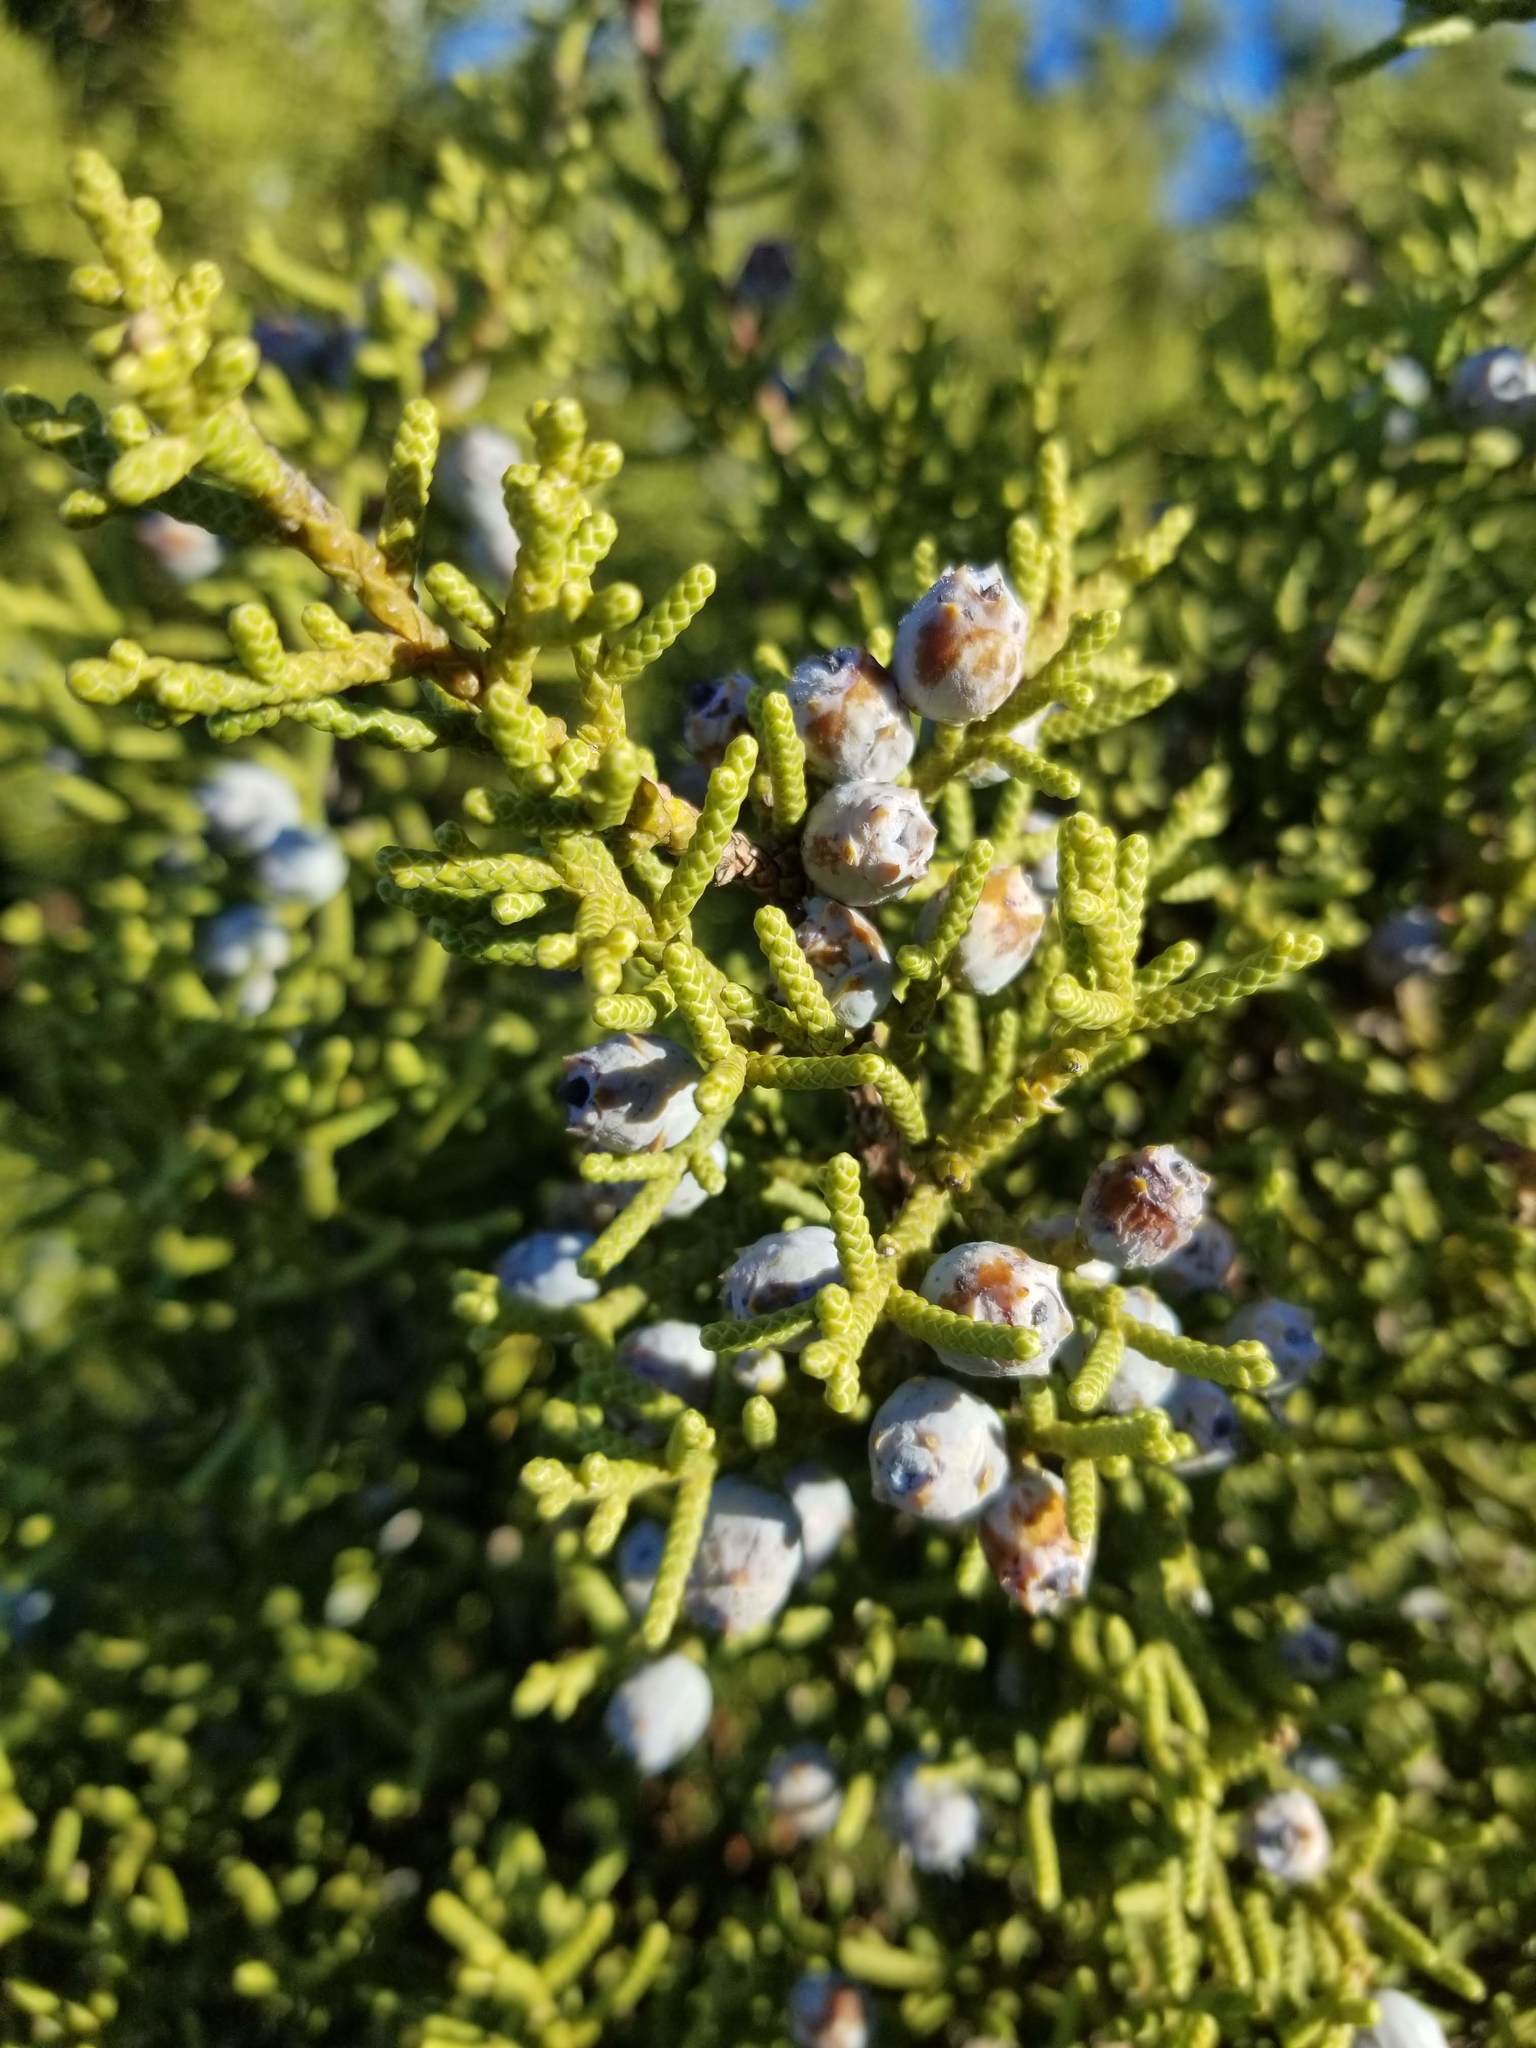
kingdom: Plantae
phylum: Tracheophyta
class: Pinopsida
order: Pinales
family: Cupressaceae
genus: Juniperus
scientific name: Juniperus californica
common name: California juniper
